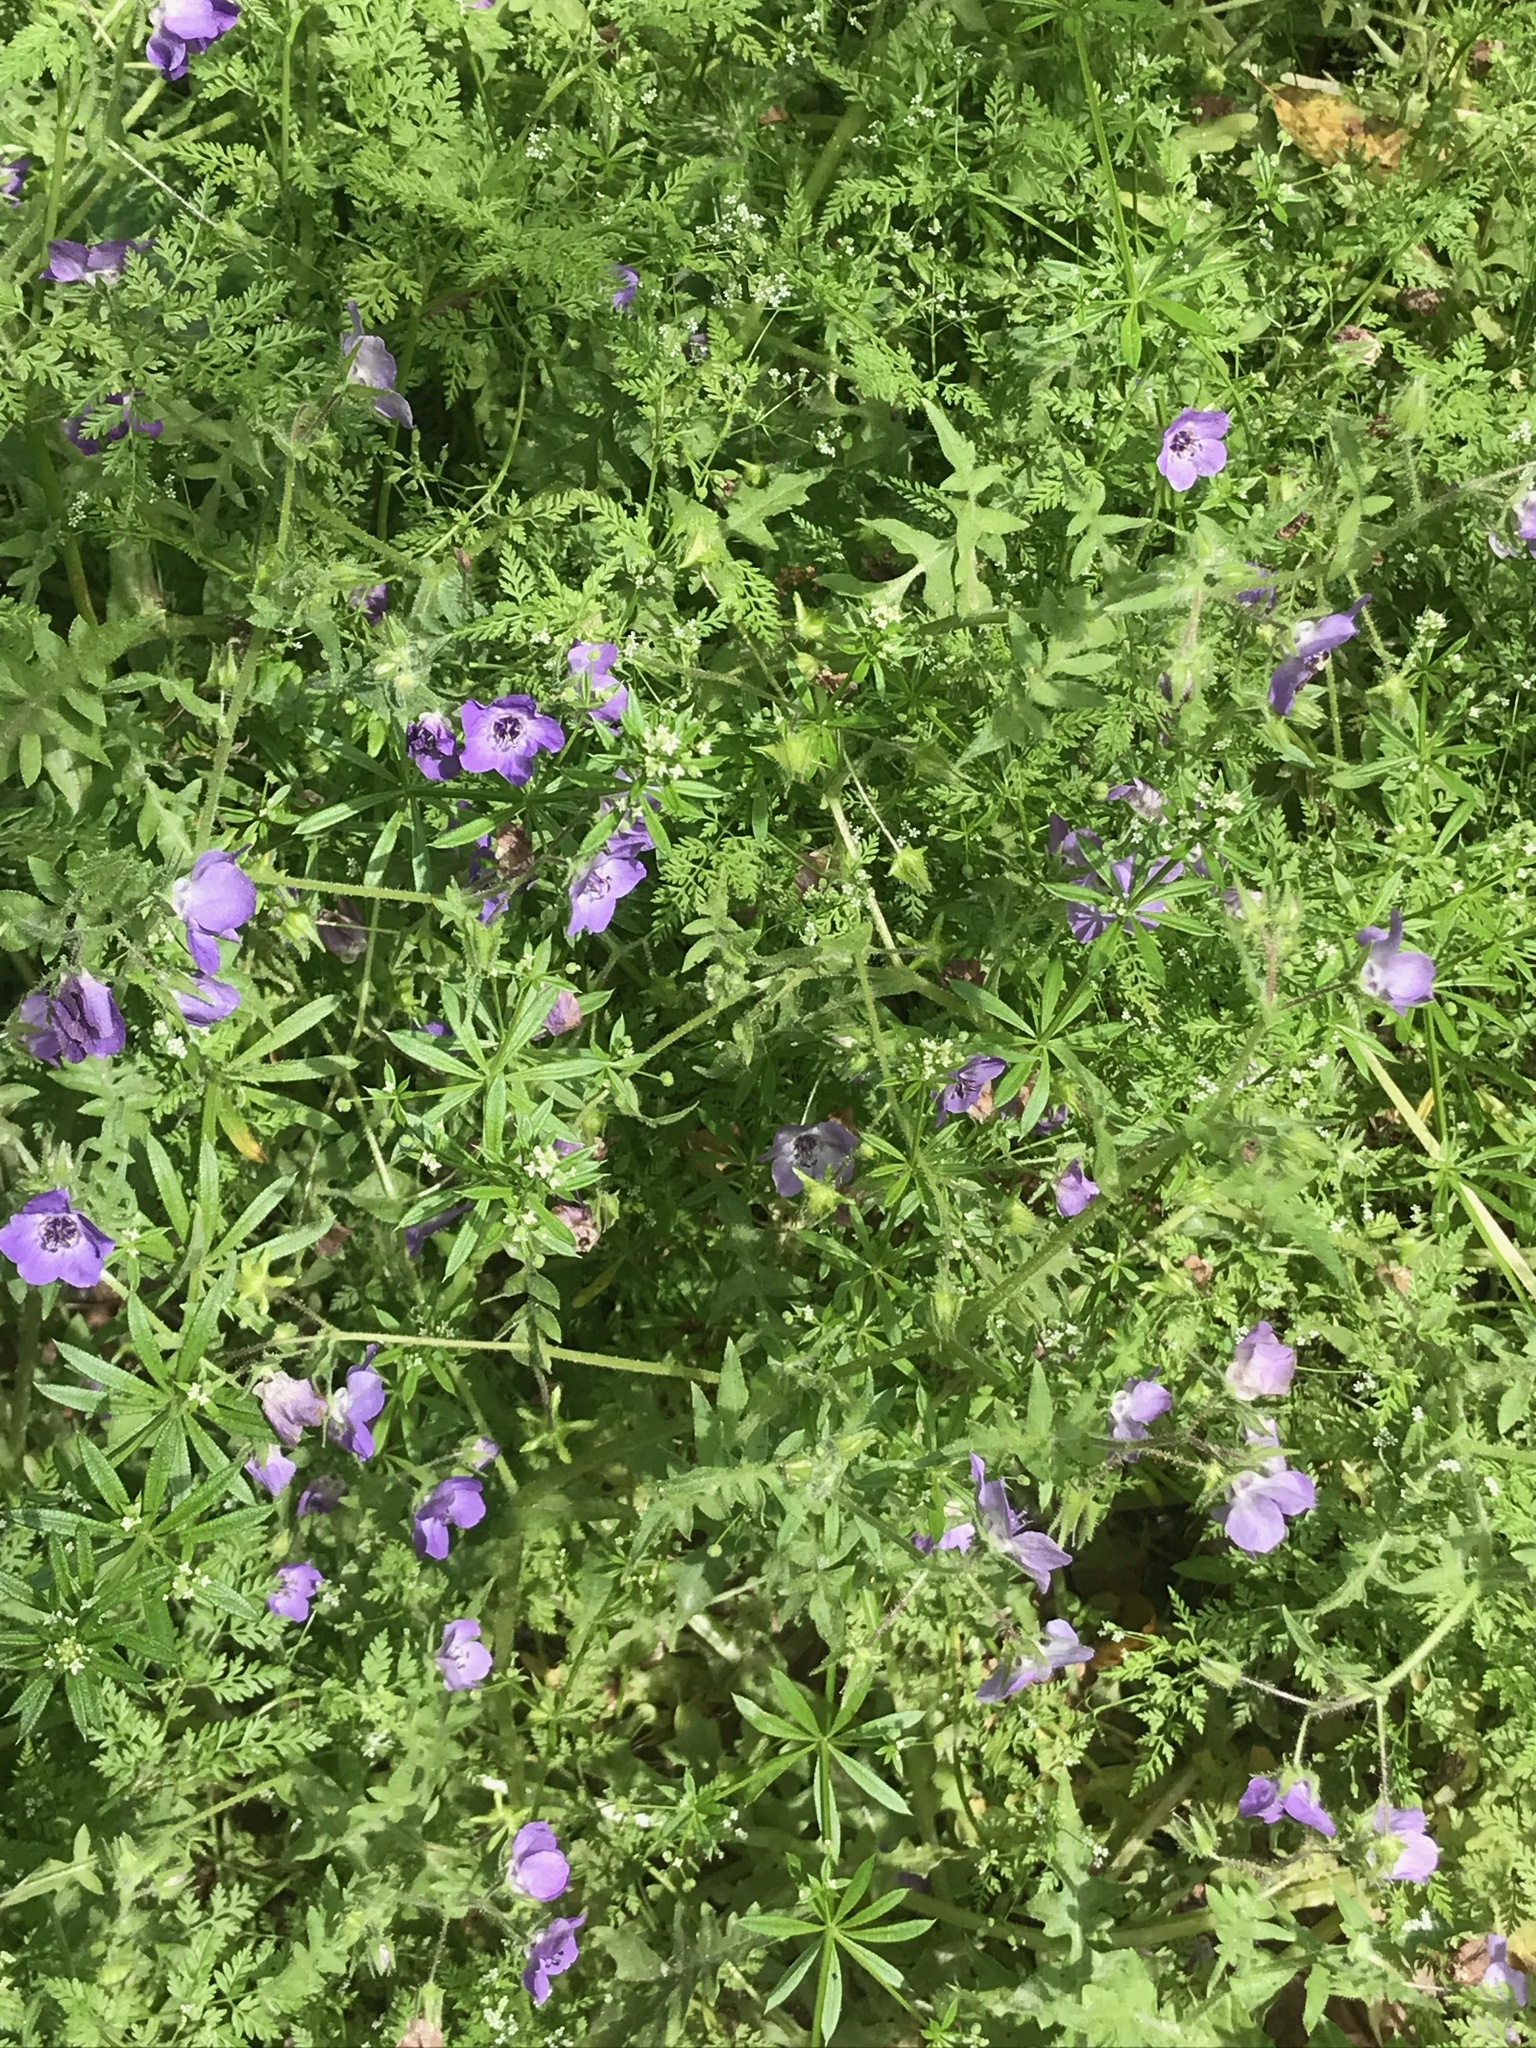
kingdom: Plantae
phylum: Tracheophyta
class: Magnoliopsida
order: Boraginales
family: Hydrophyllaceae
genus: Pholistoma
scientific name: Pholistoma auritum
